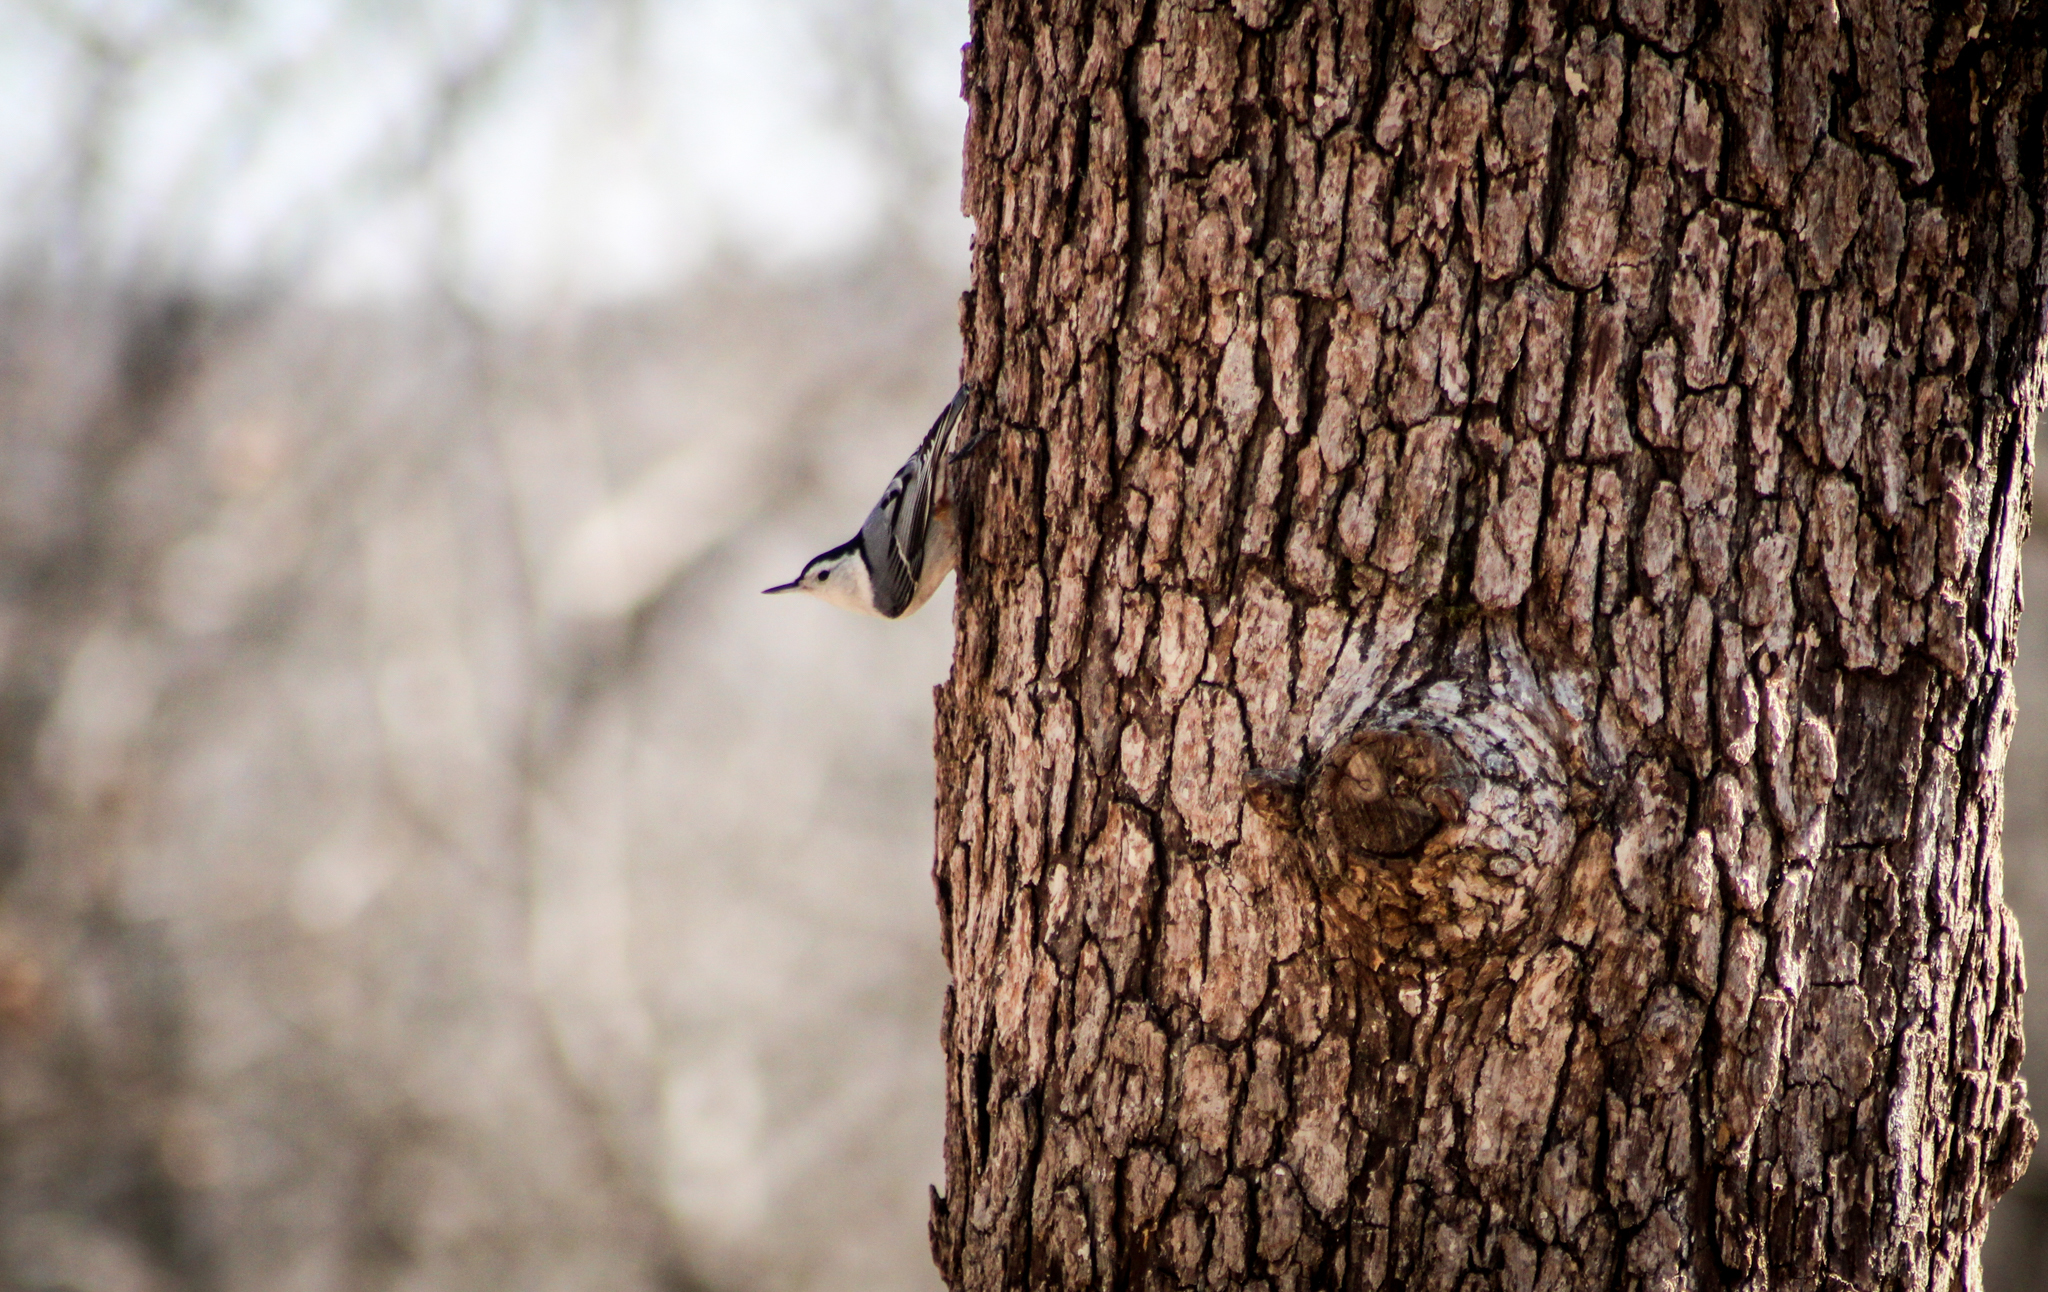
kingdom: Animalia
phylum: Chordata
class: Aves
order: Passeriformes
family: Sittidae
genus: Sitta
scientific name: Sitta carolinensis
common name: White-breasted nuthatch
